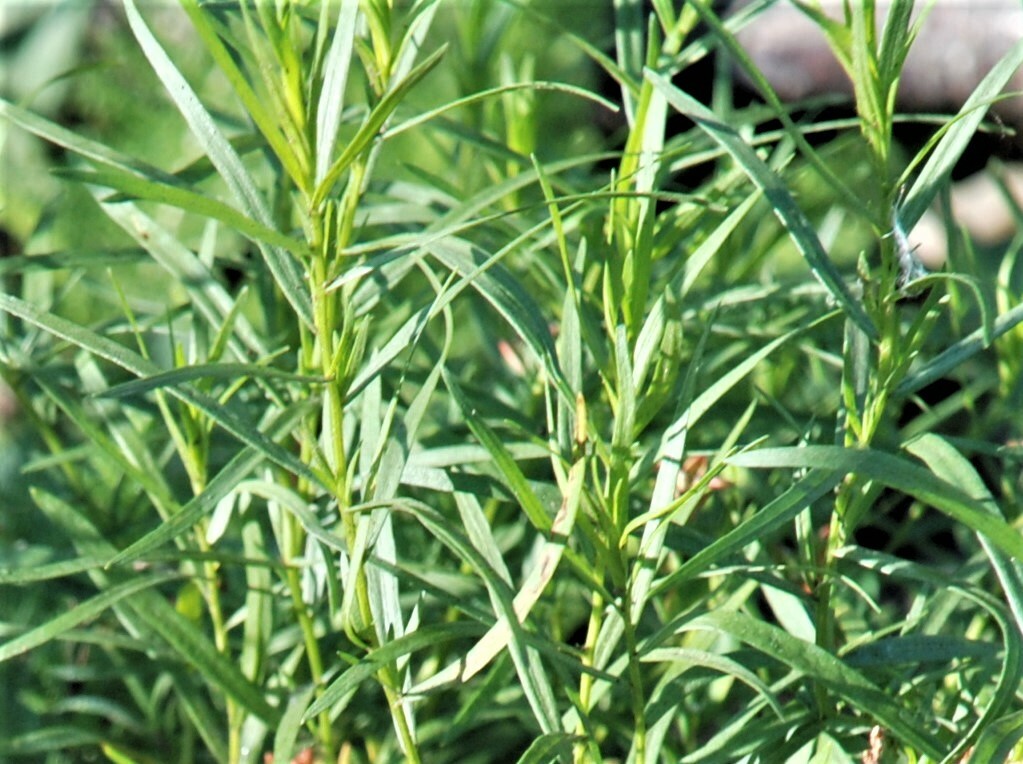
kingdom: Plantae
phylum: Tracheophyta
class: Magnoliopsida
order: Asterales
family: Asteraceae
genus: Artemisia
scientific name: Artemisia dracunculus
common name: Tarragon
